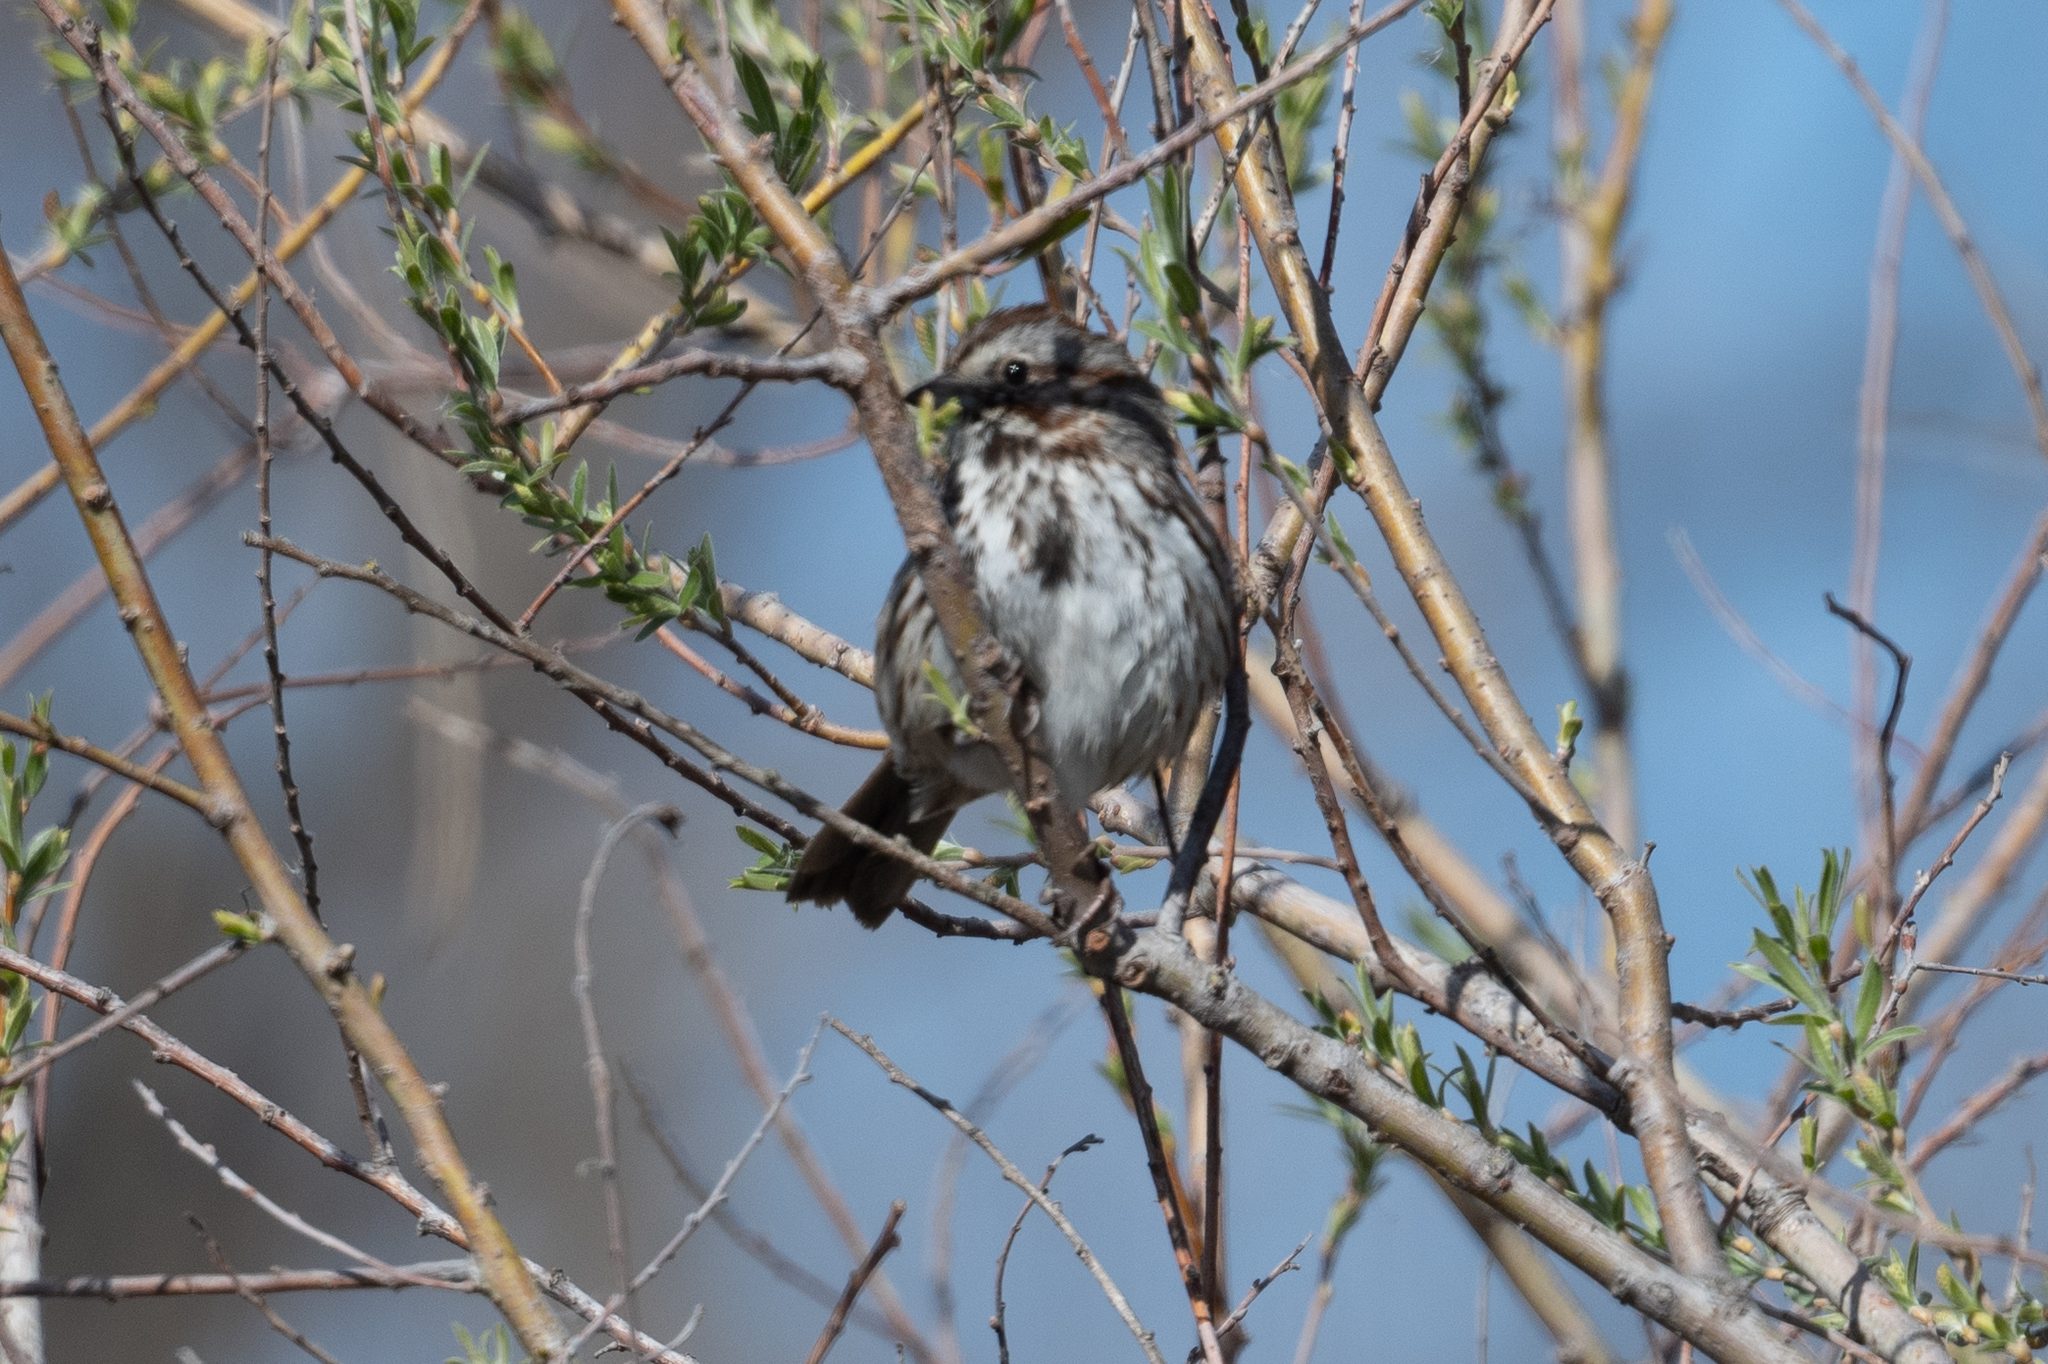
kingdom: Animalia
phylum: Chordata
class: Aves
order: Passeriformes
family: Passerellidae
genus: Melospiza
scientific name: Melospiza melodia
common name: Song sparrow
